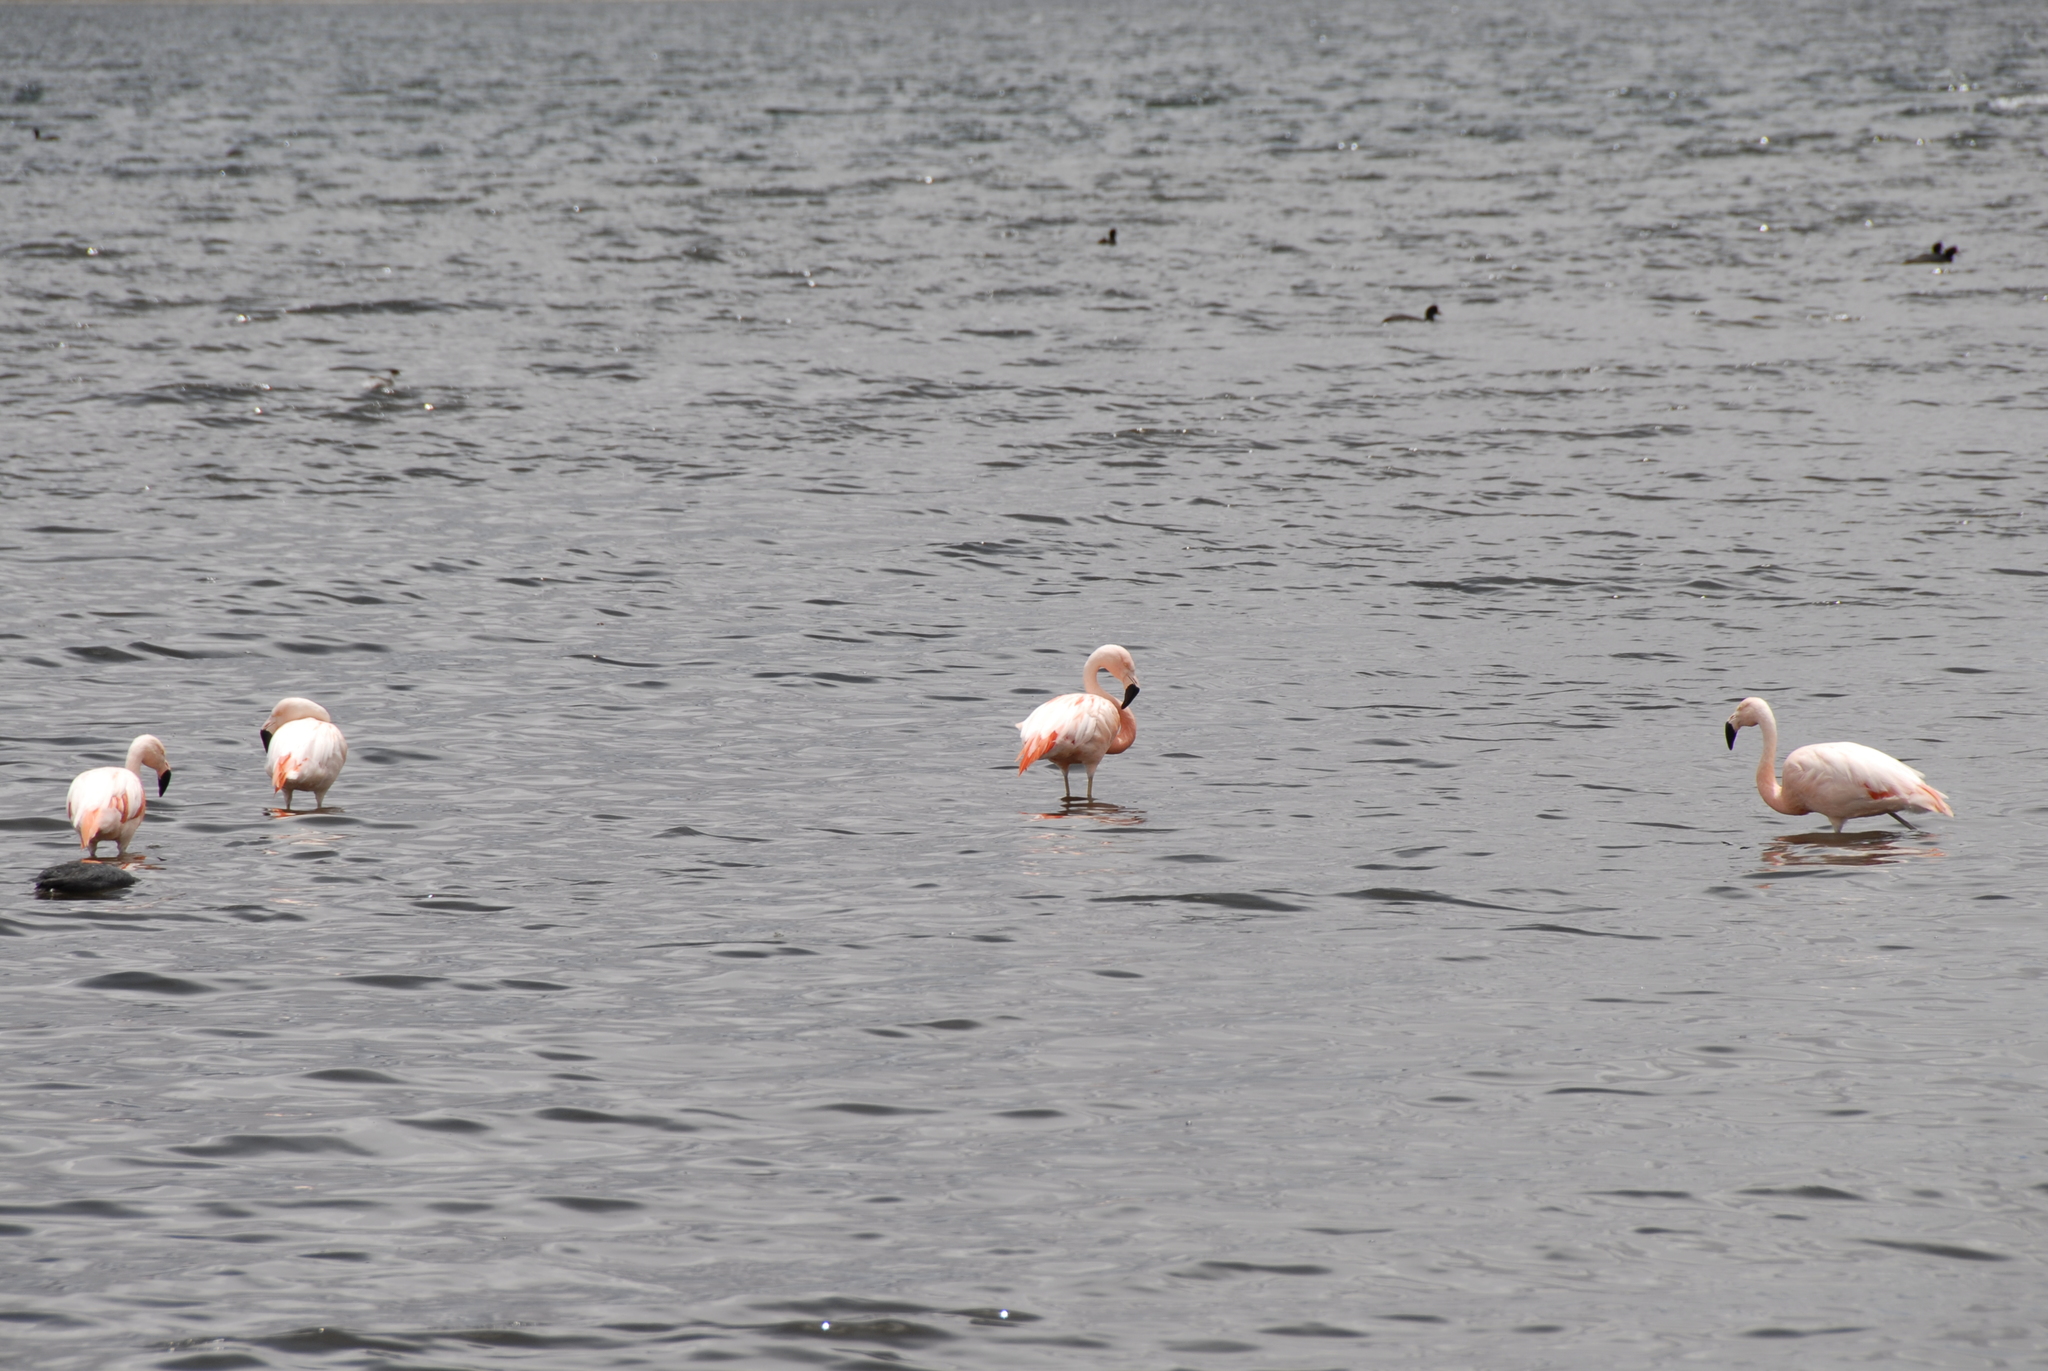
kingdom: Animalia
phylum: Chordata
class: Aves
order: Phoenicopteriformes
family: Phoenicopteridae
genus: Phoenicopterus
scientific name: Phoenicopterus chilensis
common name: Chilean flamingo
